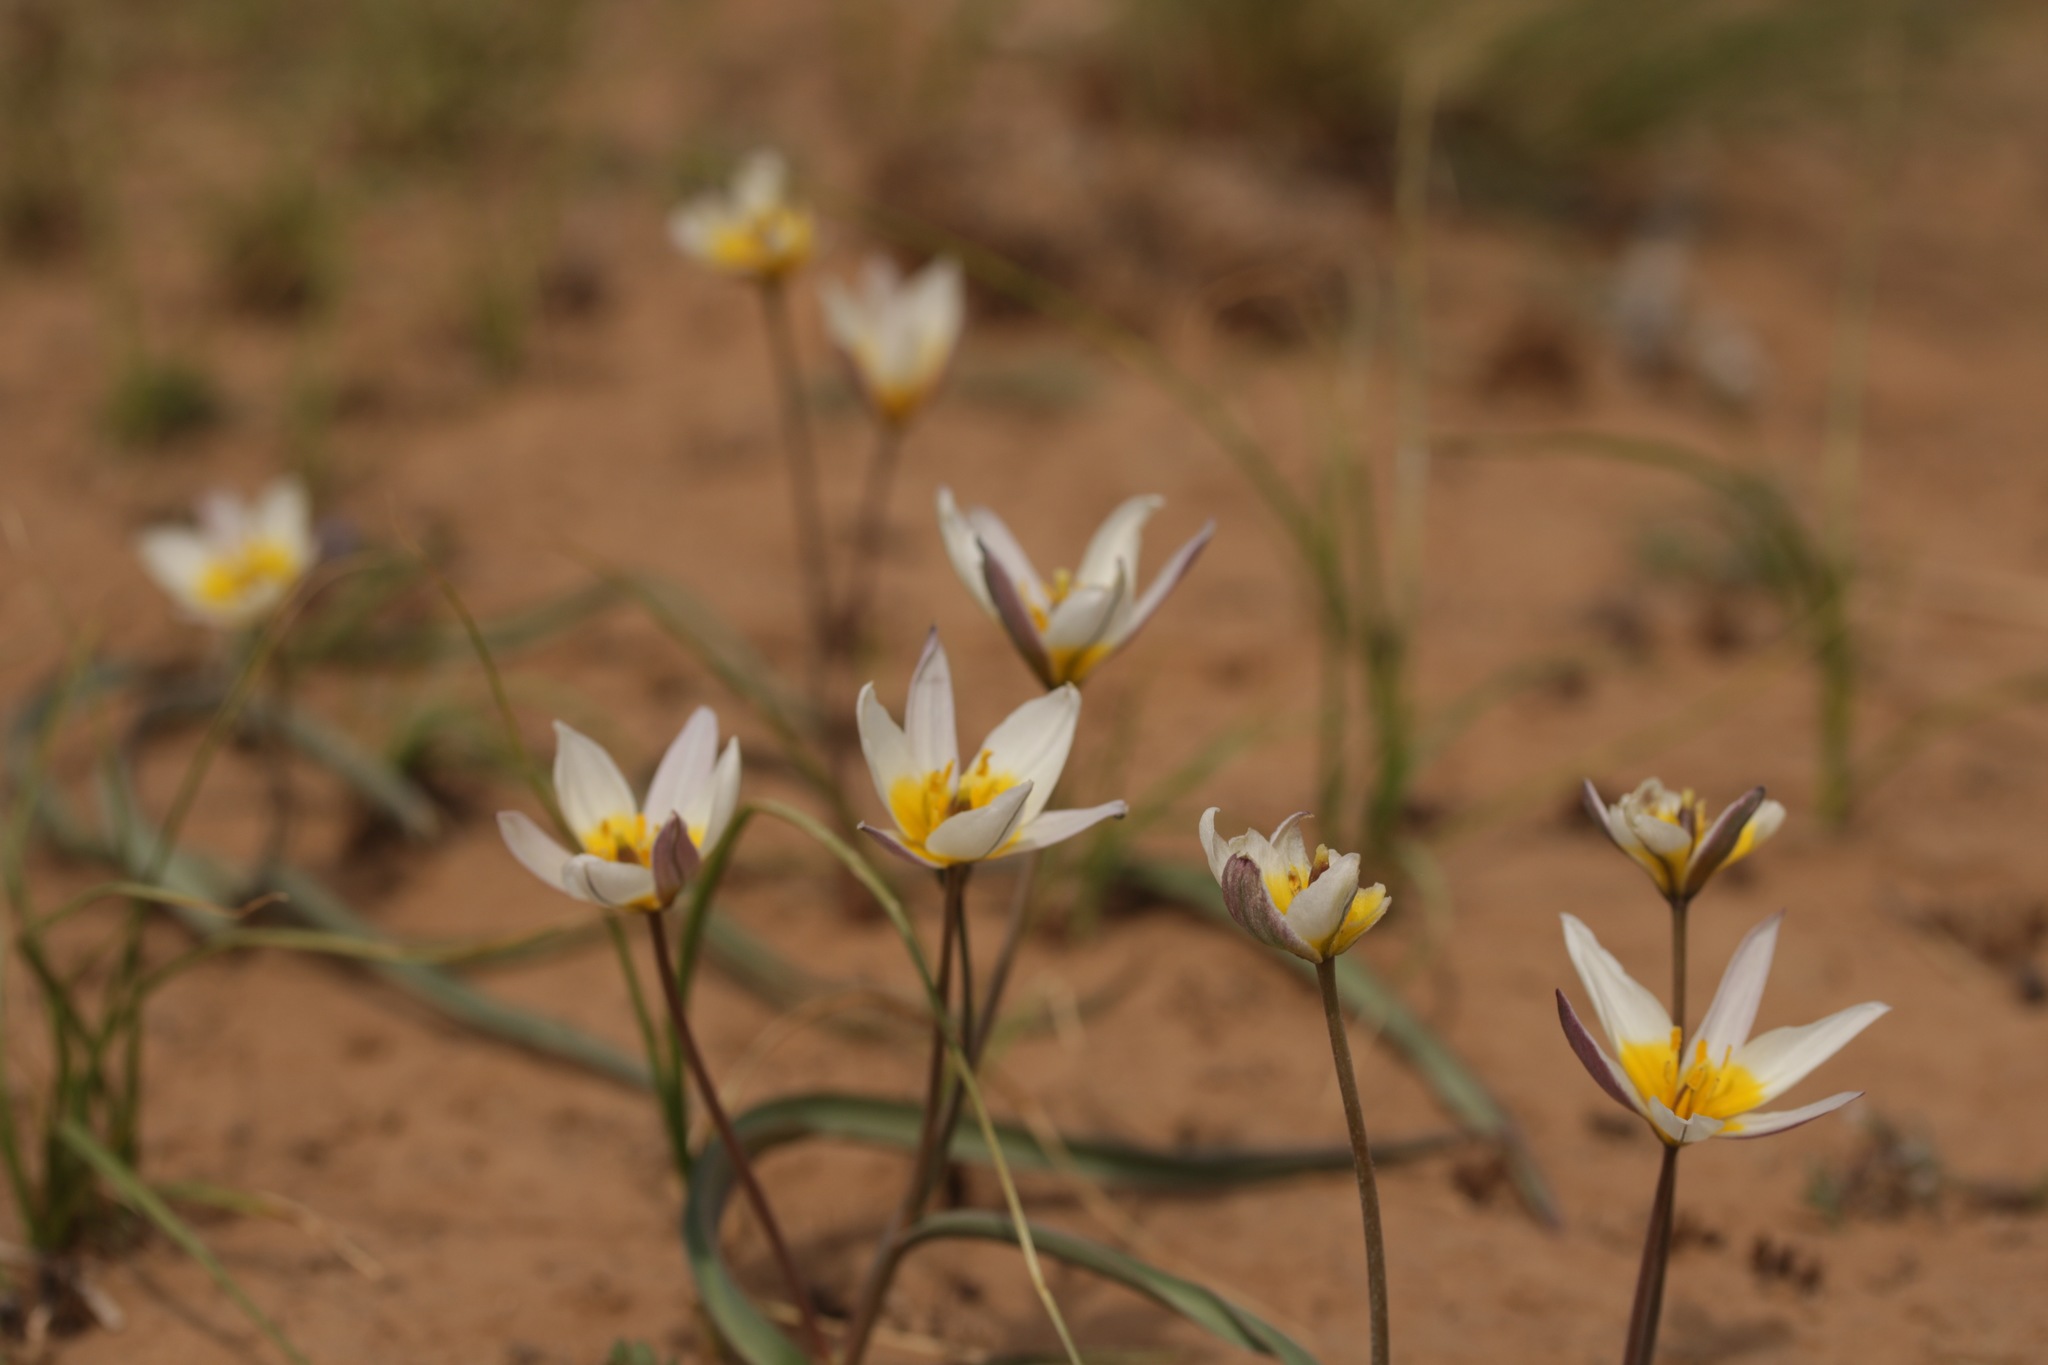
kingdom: Plantae
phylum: Tracheophyta
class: Liliopsida
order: Liliales
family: Liliaceae
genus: Tulipa
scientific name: Tulipa biflora
